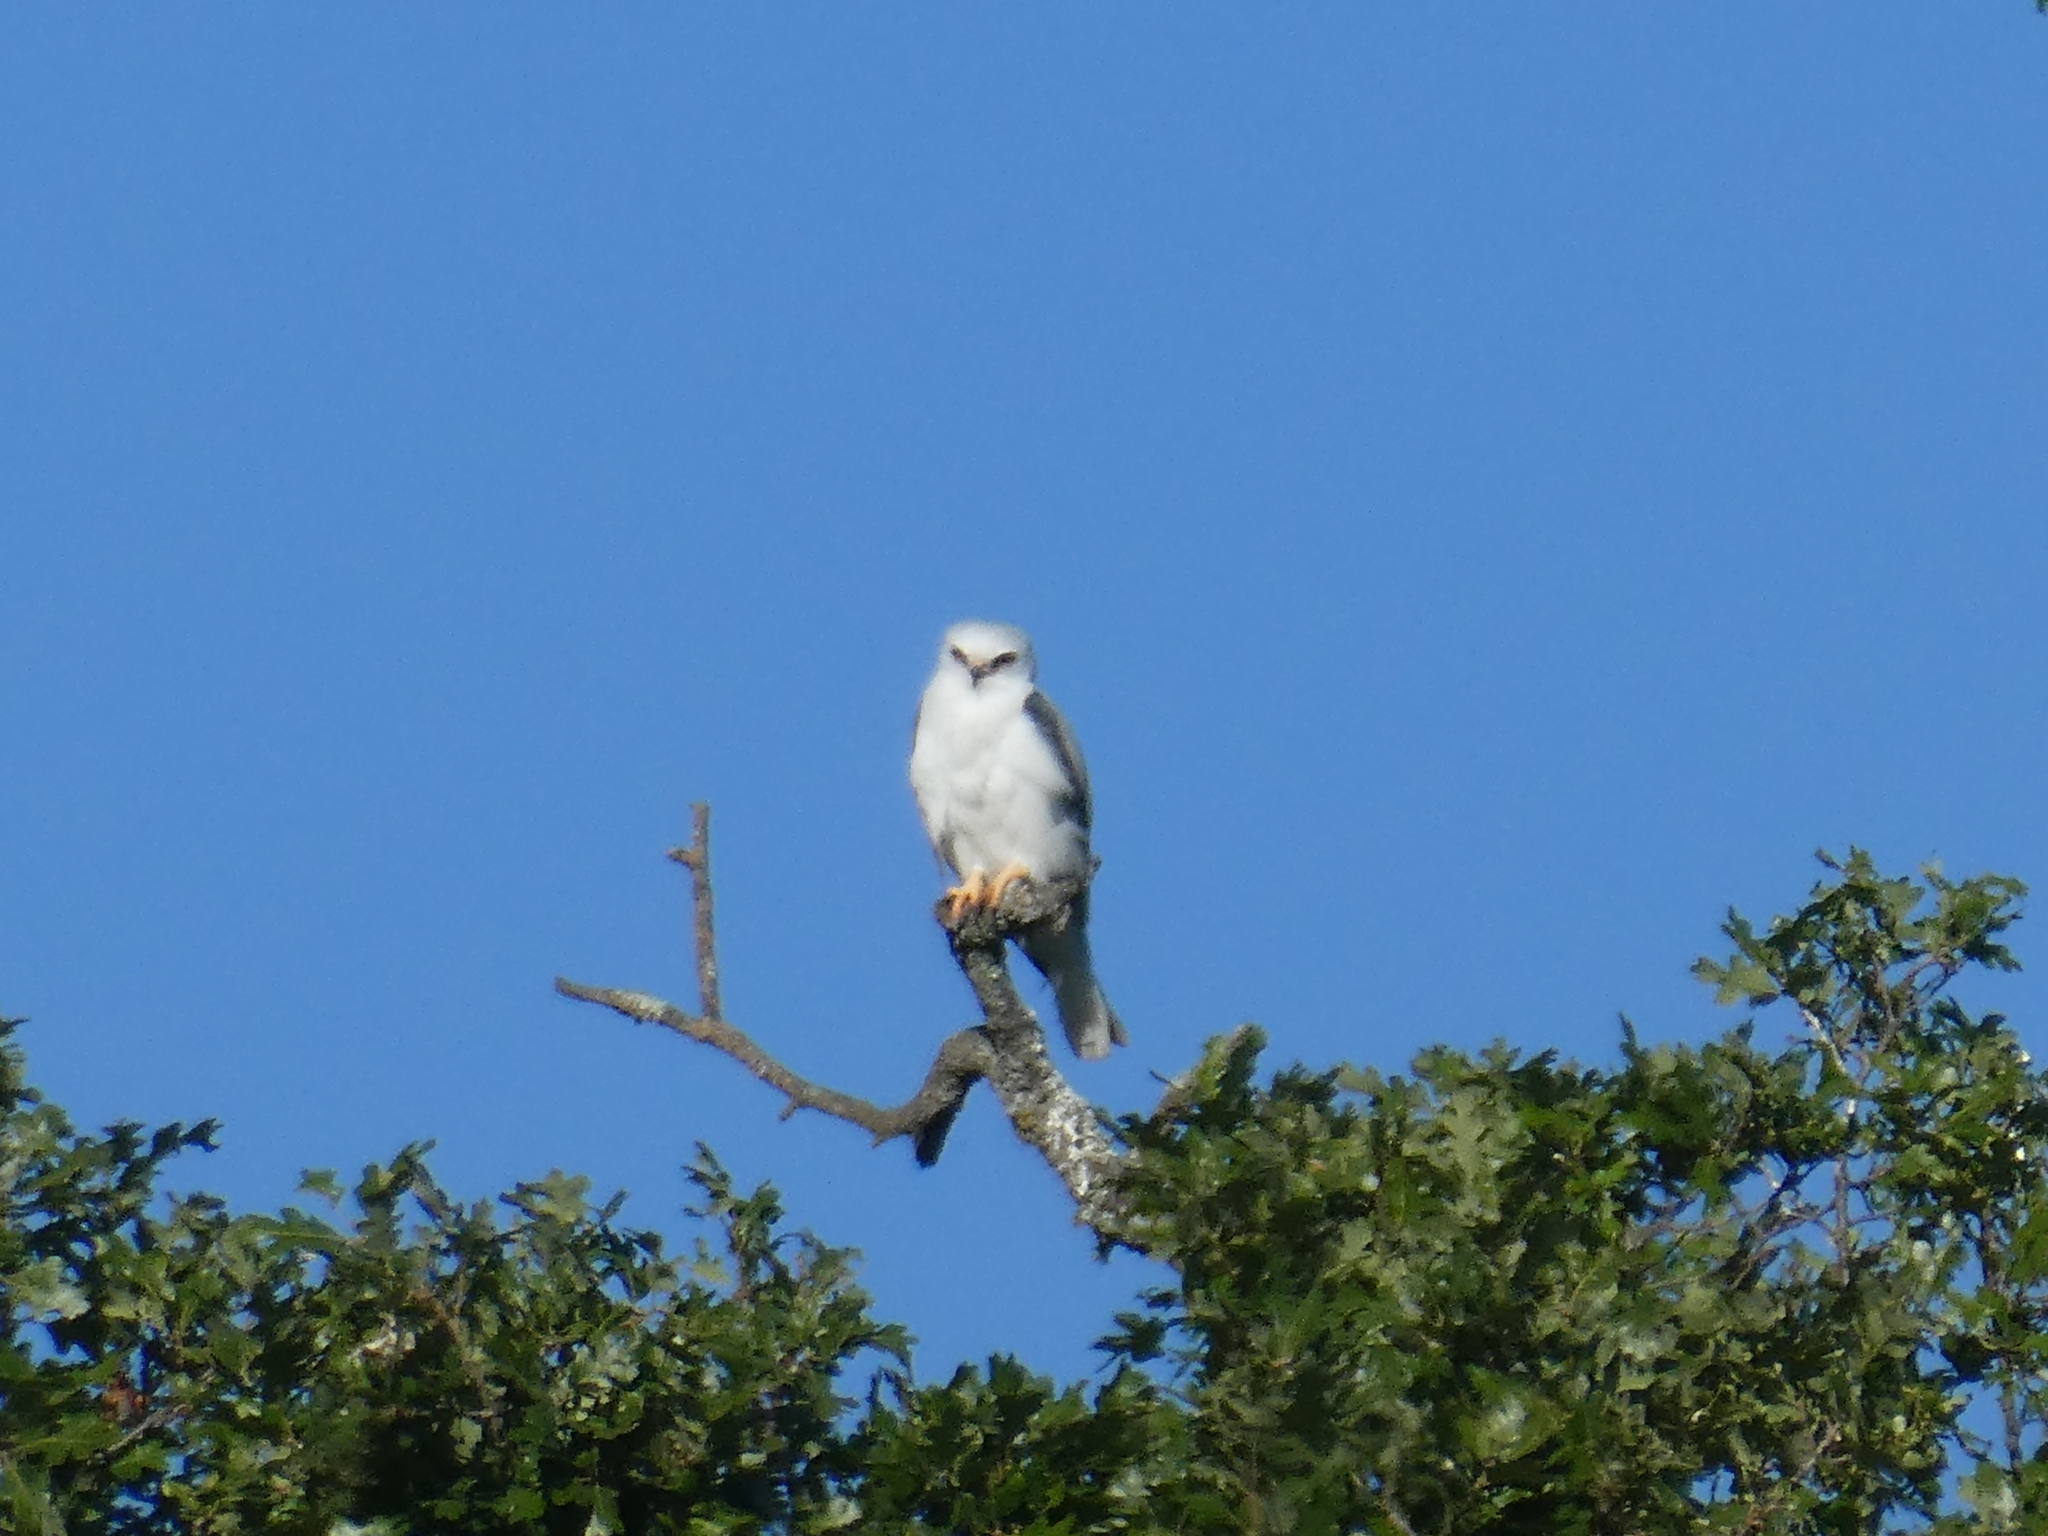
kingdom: Animalia
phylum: Chordata
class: Aves
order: Accipitriformes
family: Accipitridae
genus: Elanus
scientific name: Elanus leucurus
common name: White-tailed kite
